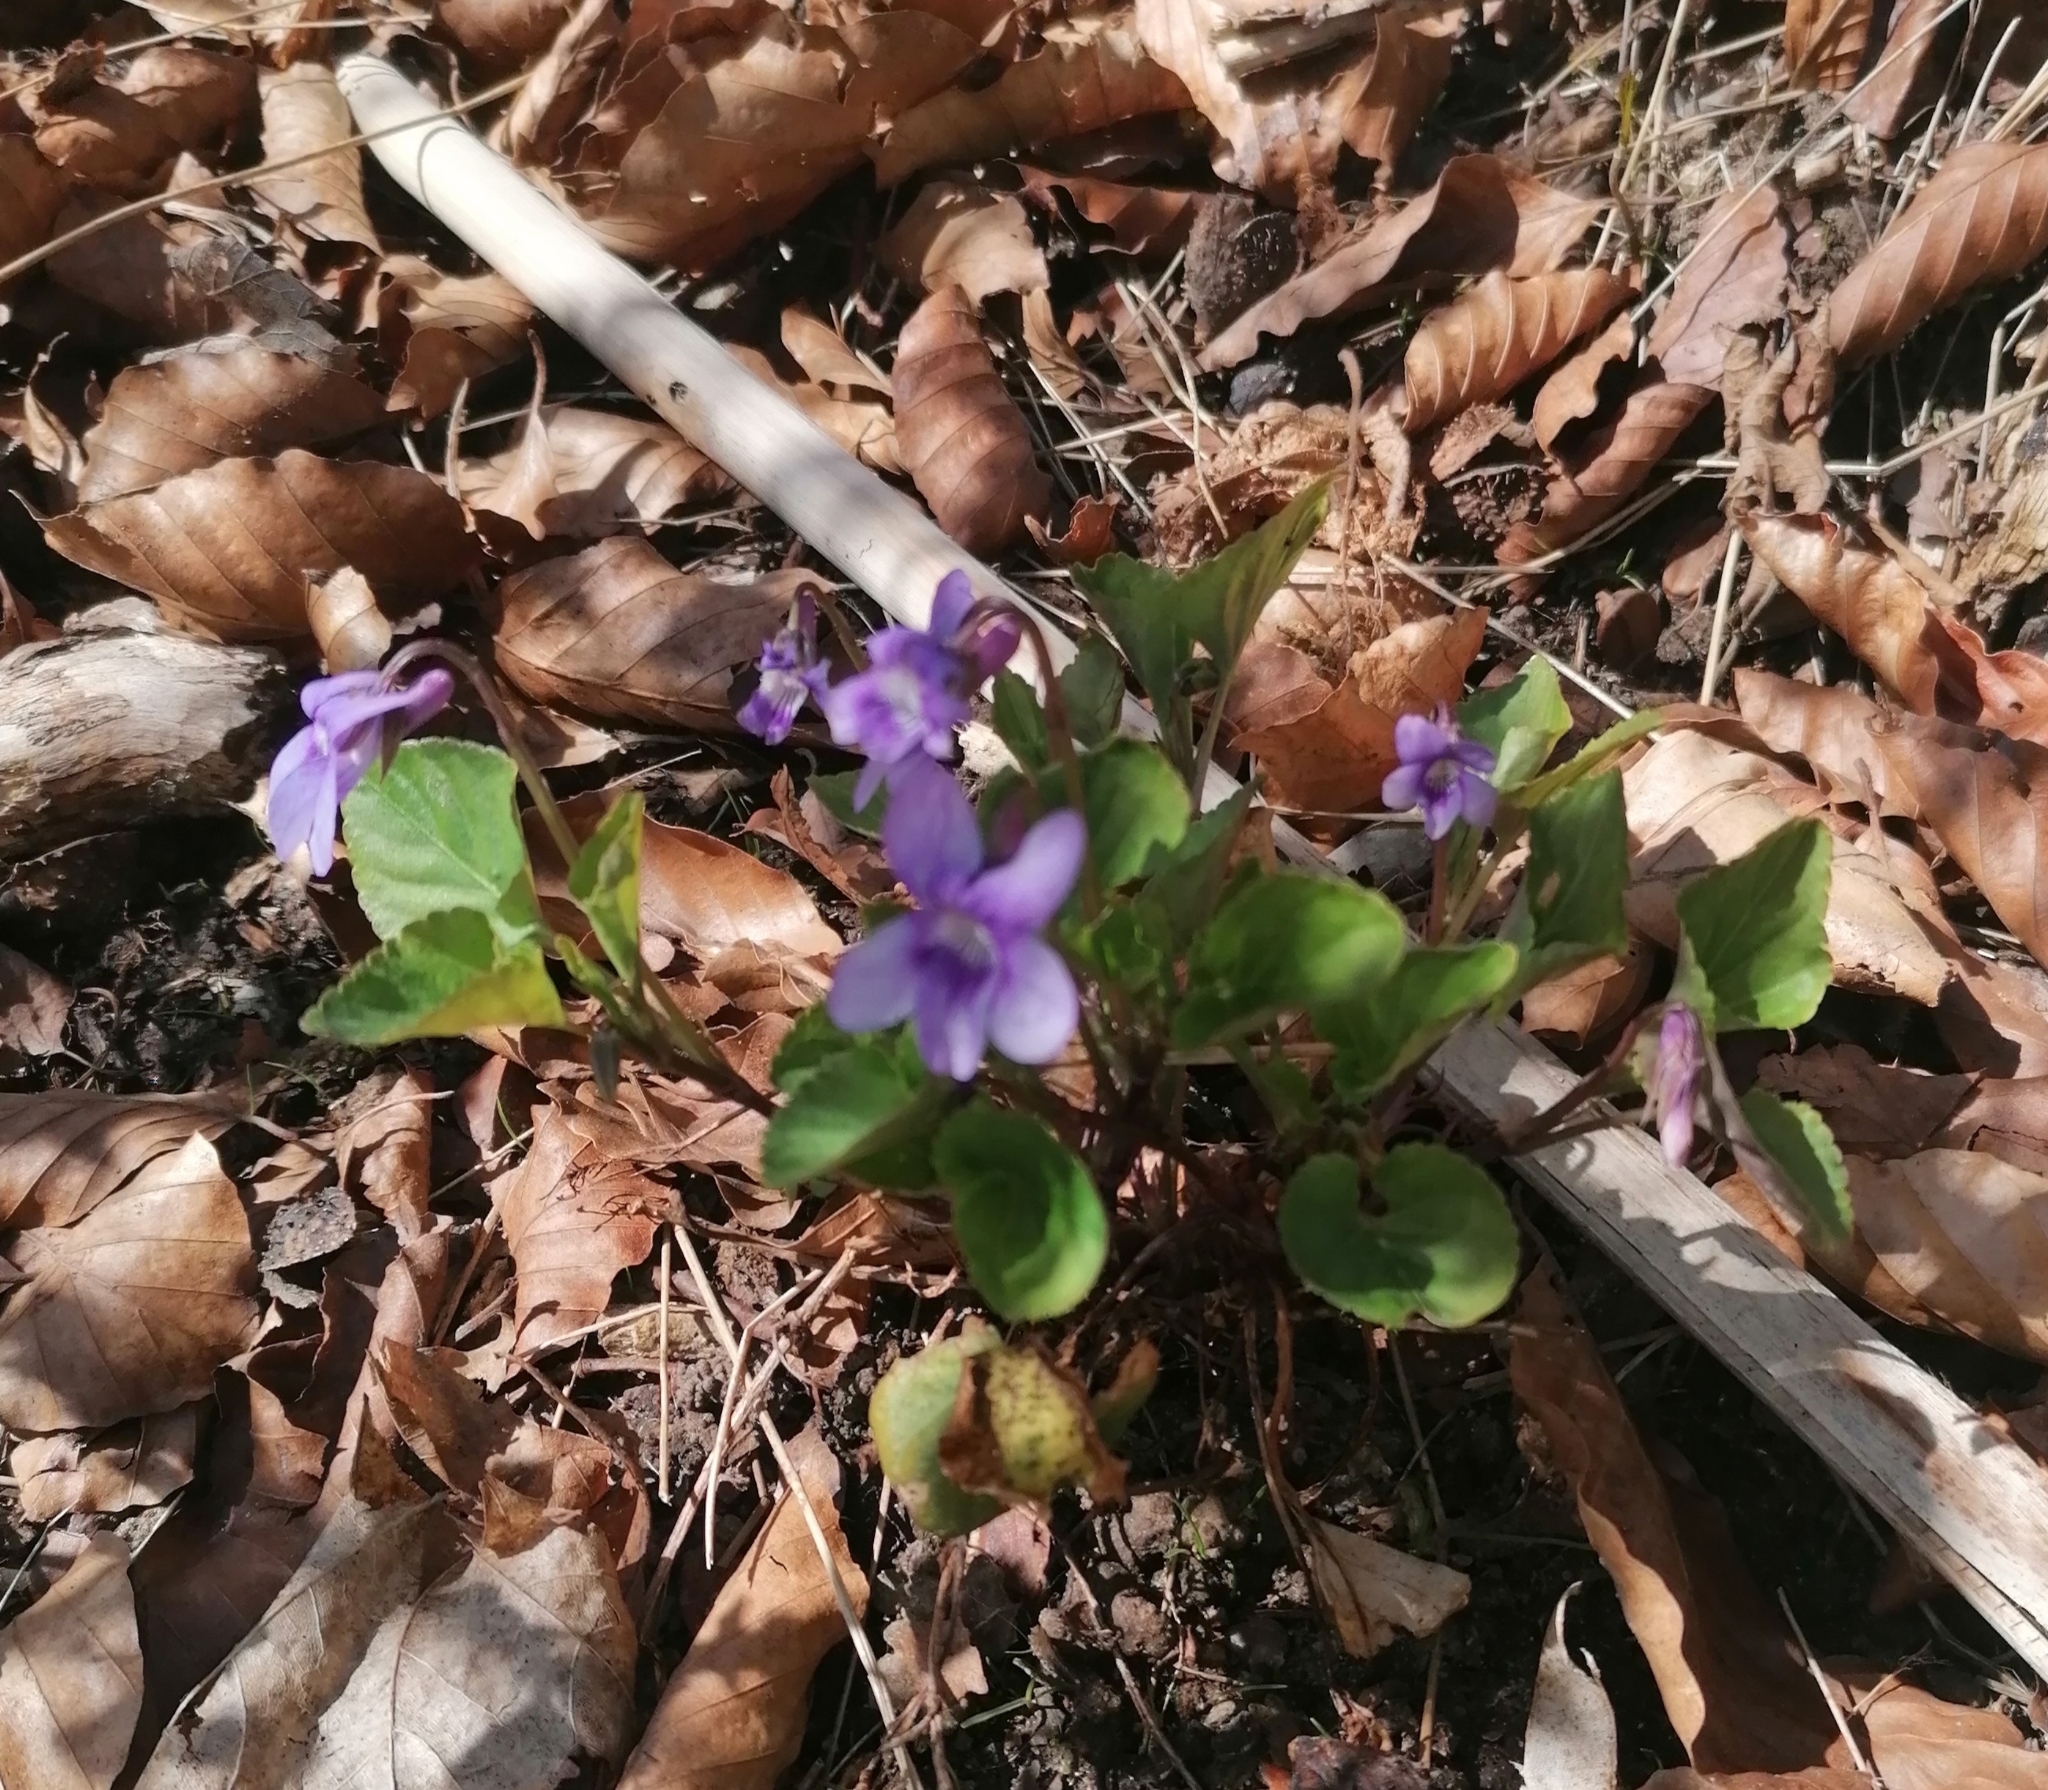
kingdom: Plantae
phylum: Tracheophyta
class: Magnoliopsida
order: Malpighiales
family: Violaceae
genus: Viola
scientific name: Viola reichenbachiana
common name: Early dog-violet
